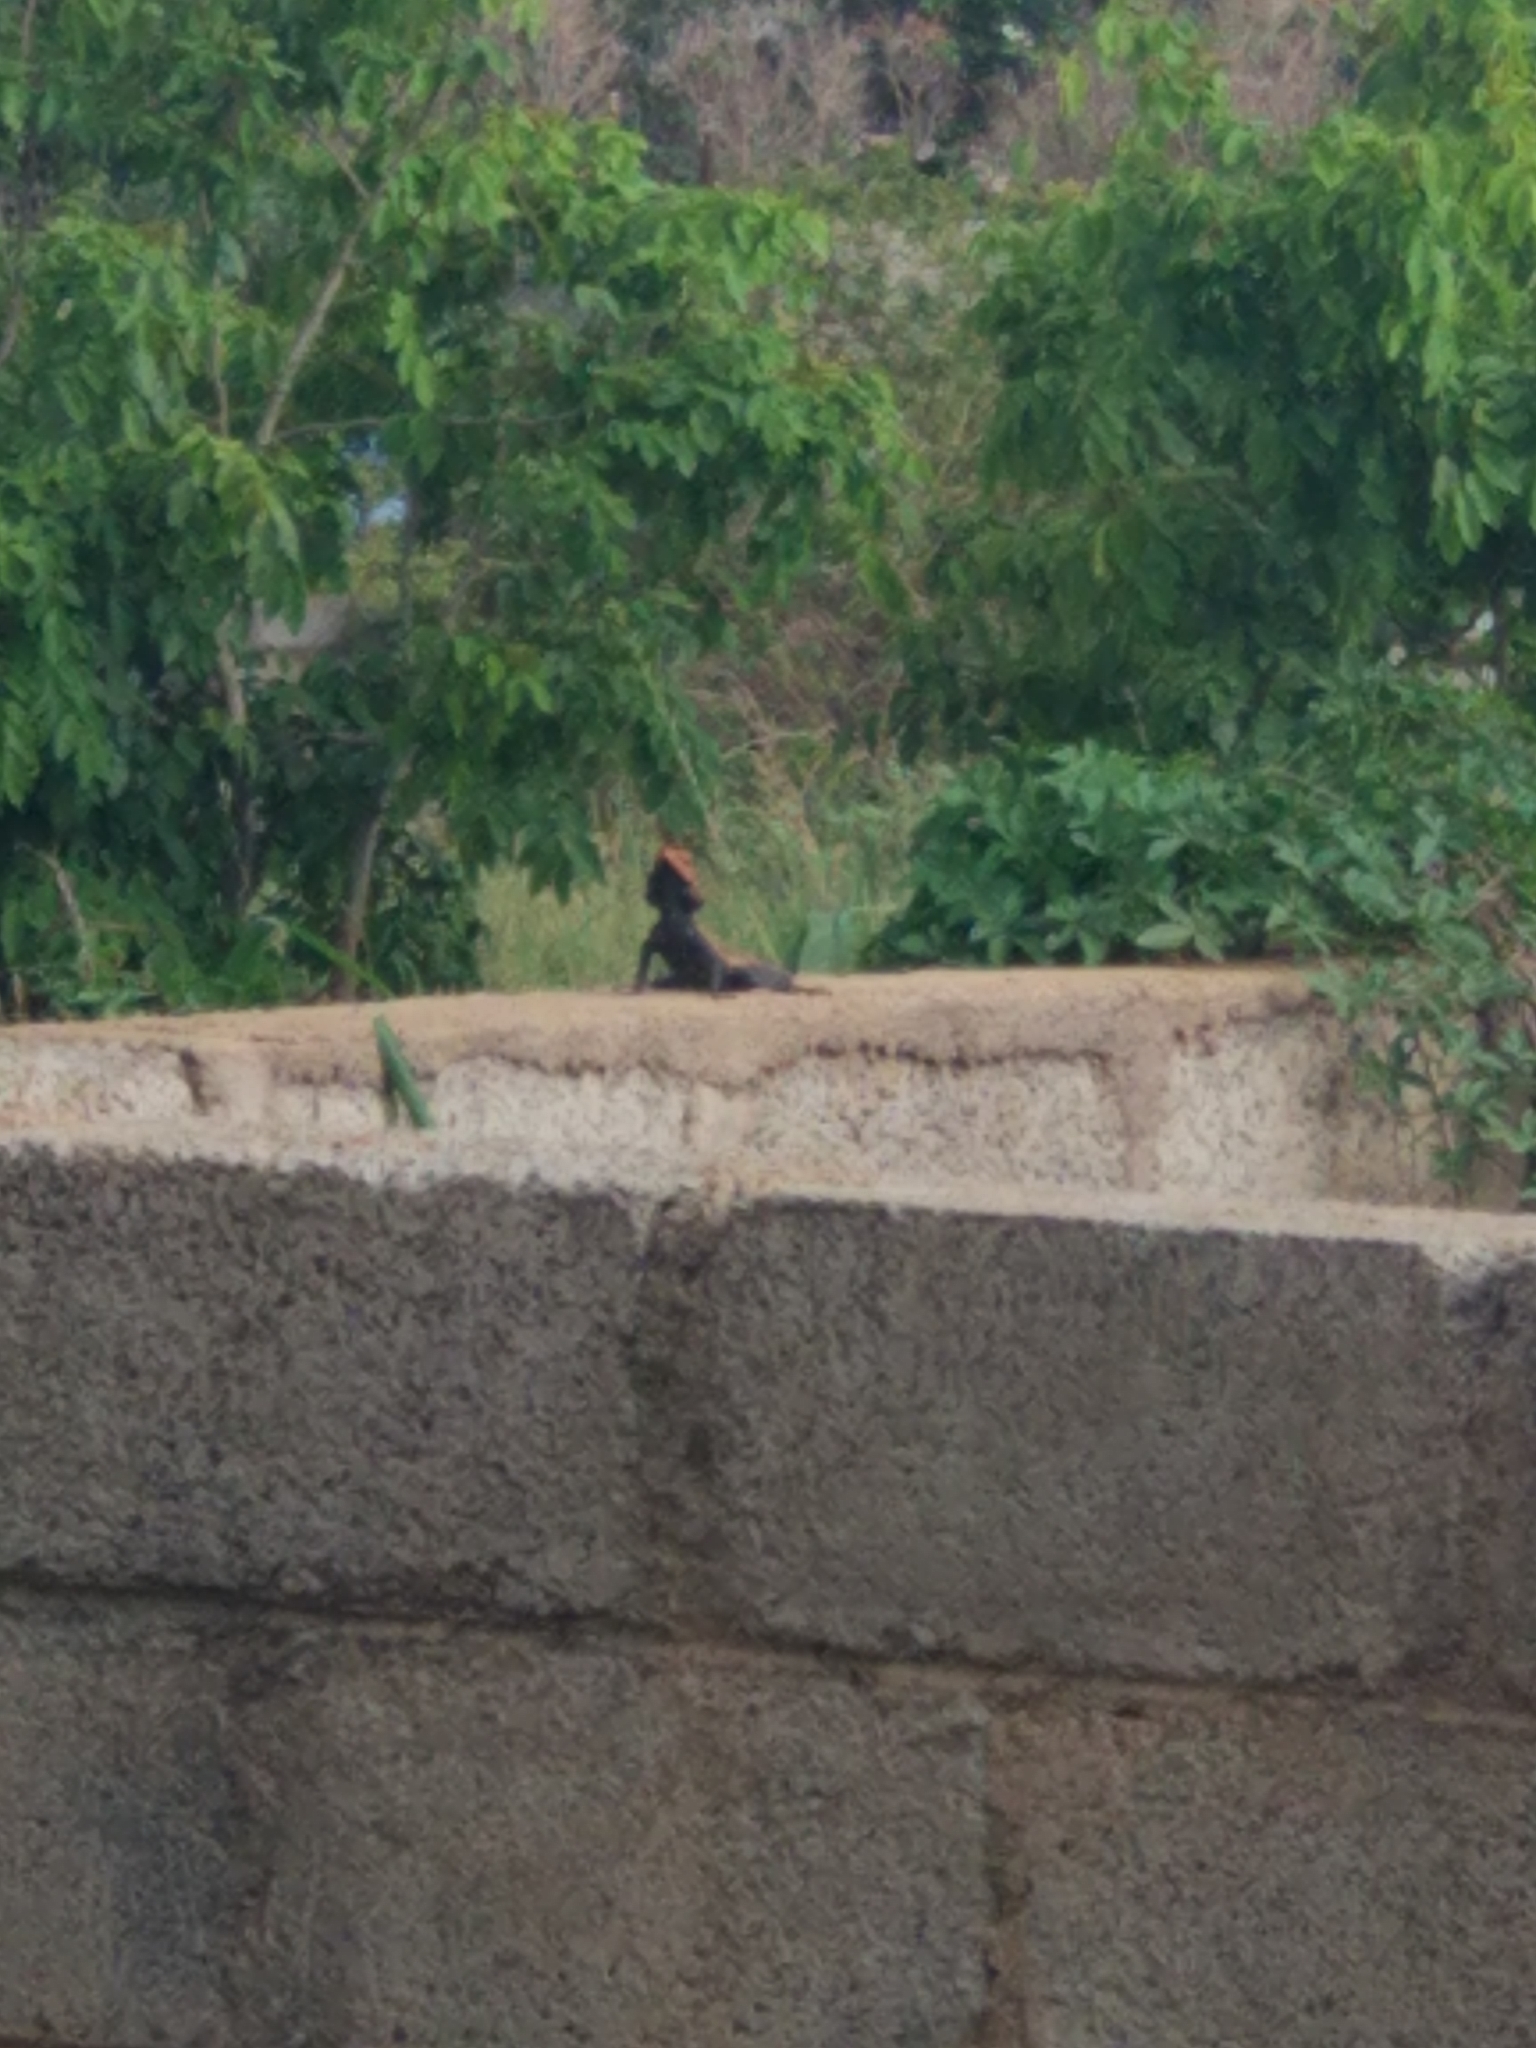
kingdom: Animalia
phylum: Chordata
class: Squamata
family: Agamidae
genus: Psammophilus
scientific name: Psammophilus dorsalis
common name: South indian rock agama
